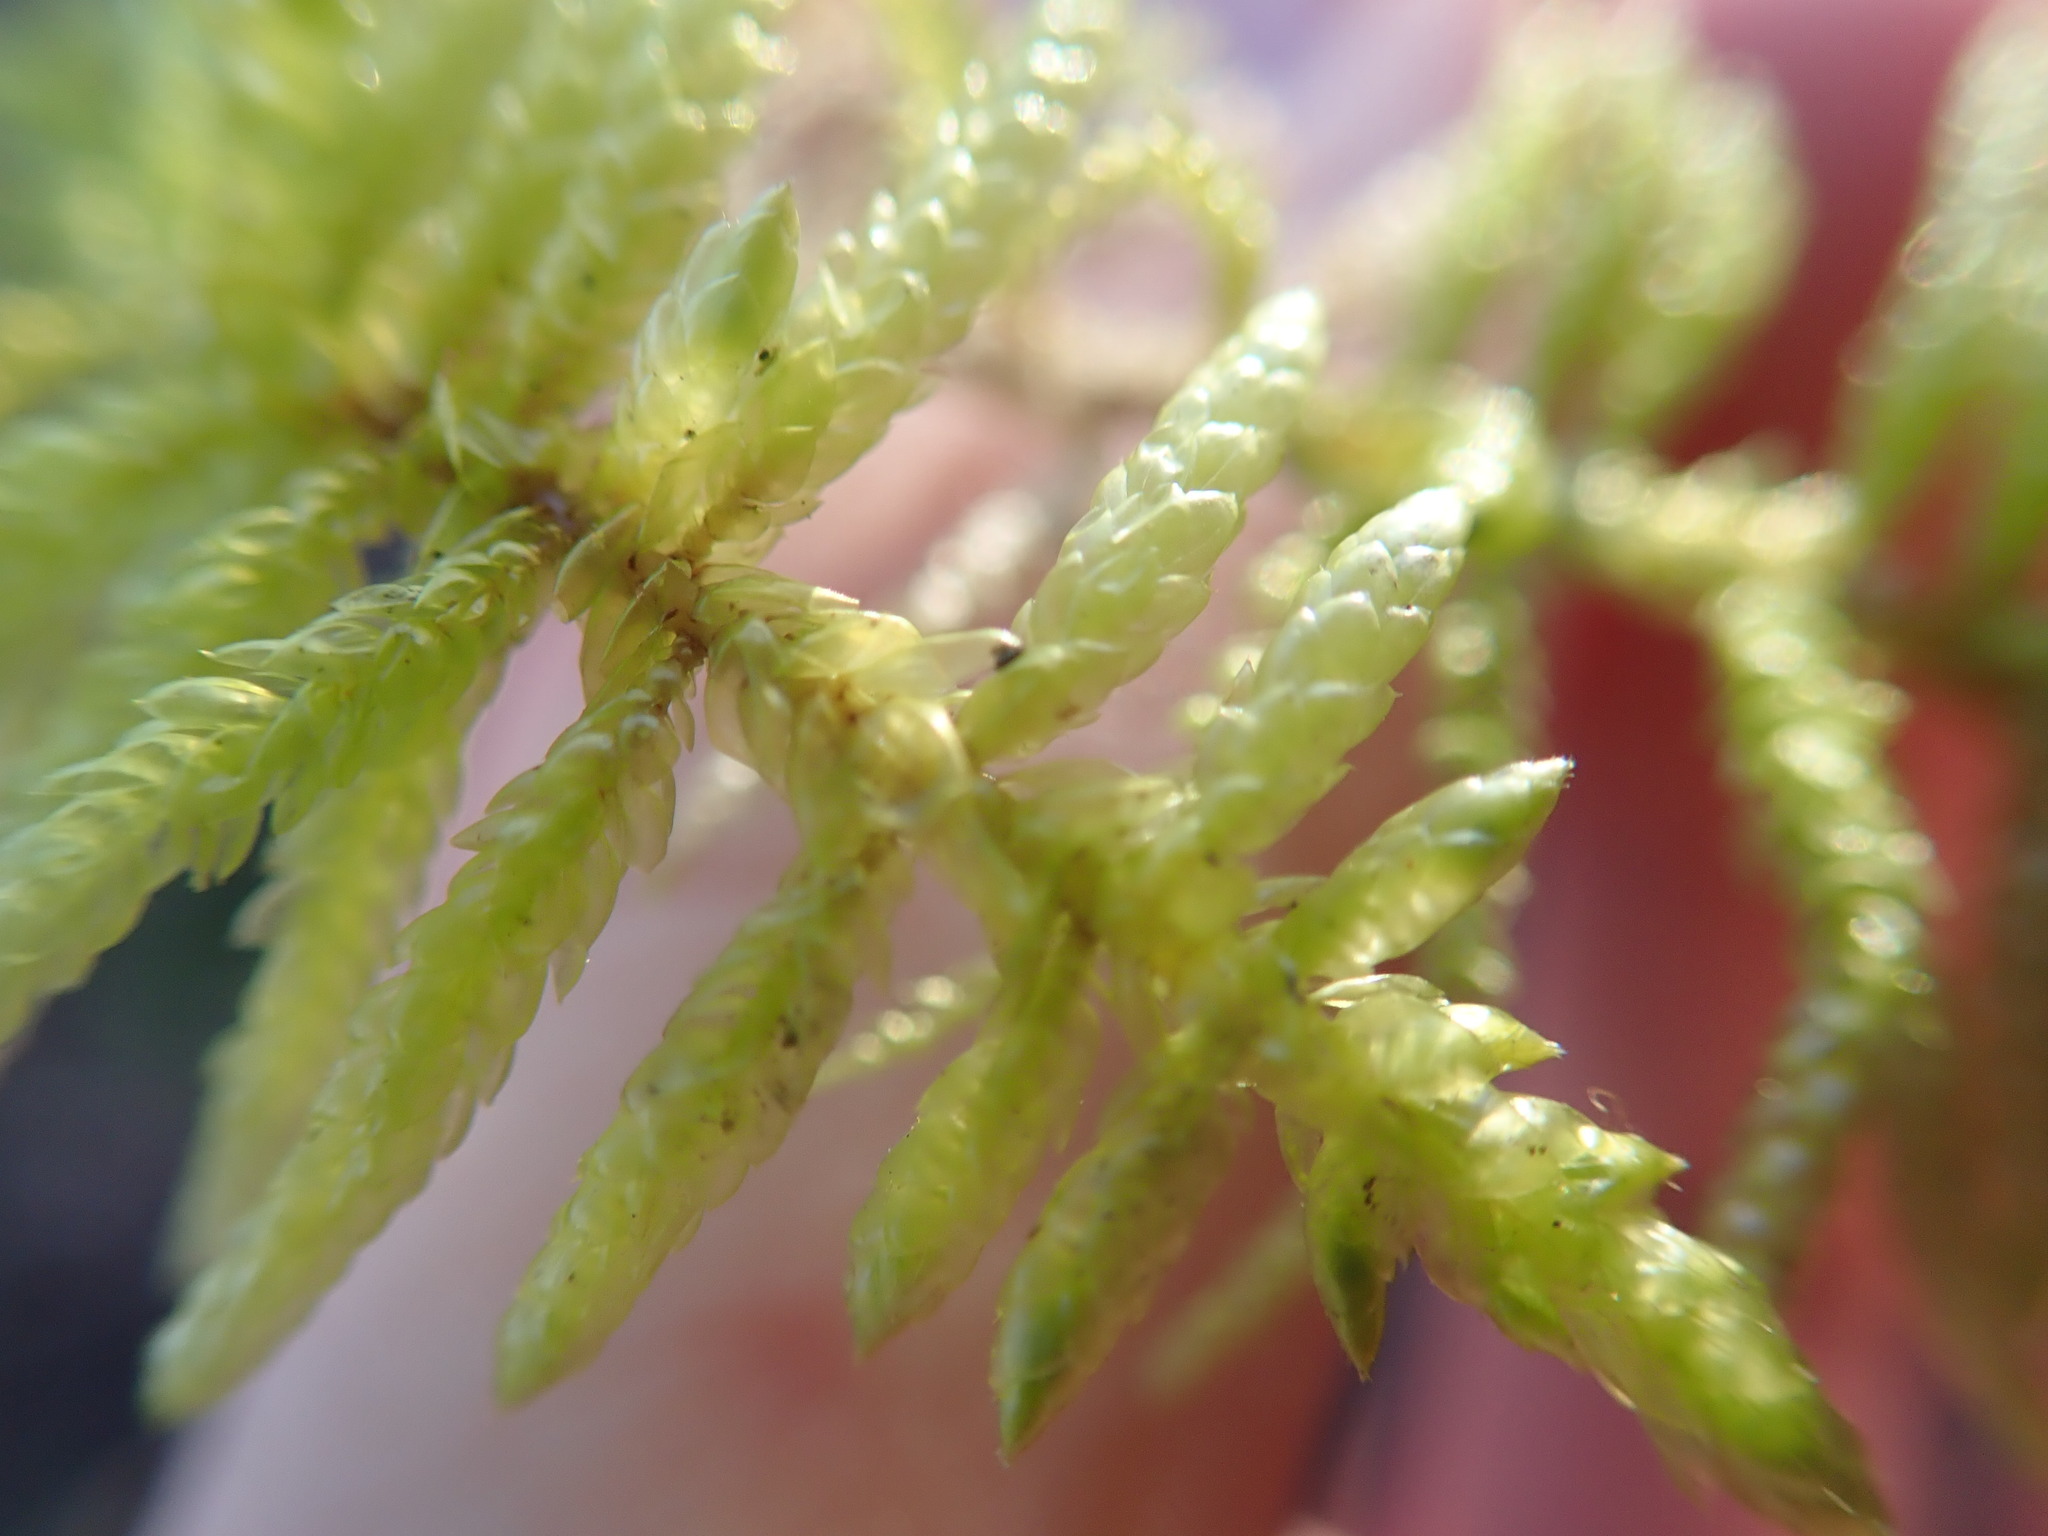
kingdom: Plantae
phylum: Bryophyta
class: Bryopsida
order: Hypnales
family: Brachytheciaceae
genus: Pseudoscleropodium
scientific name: Pseudoscleropodium purum
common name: Neat feather-moss
